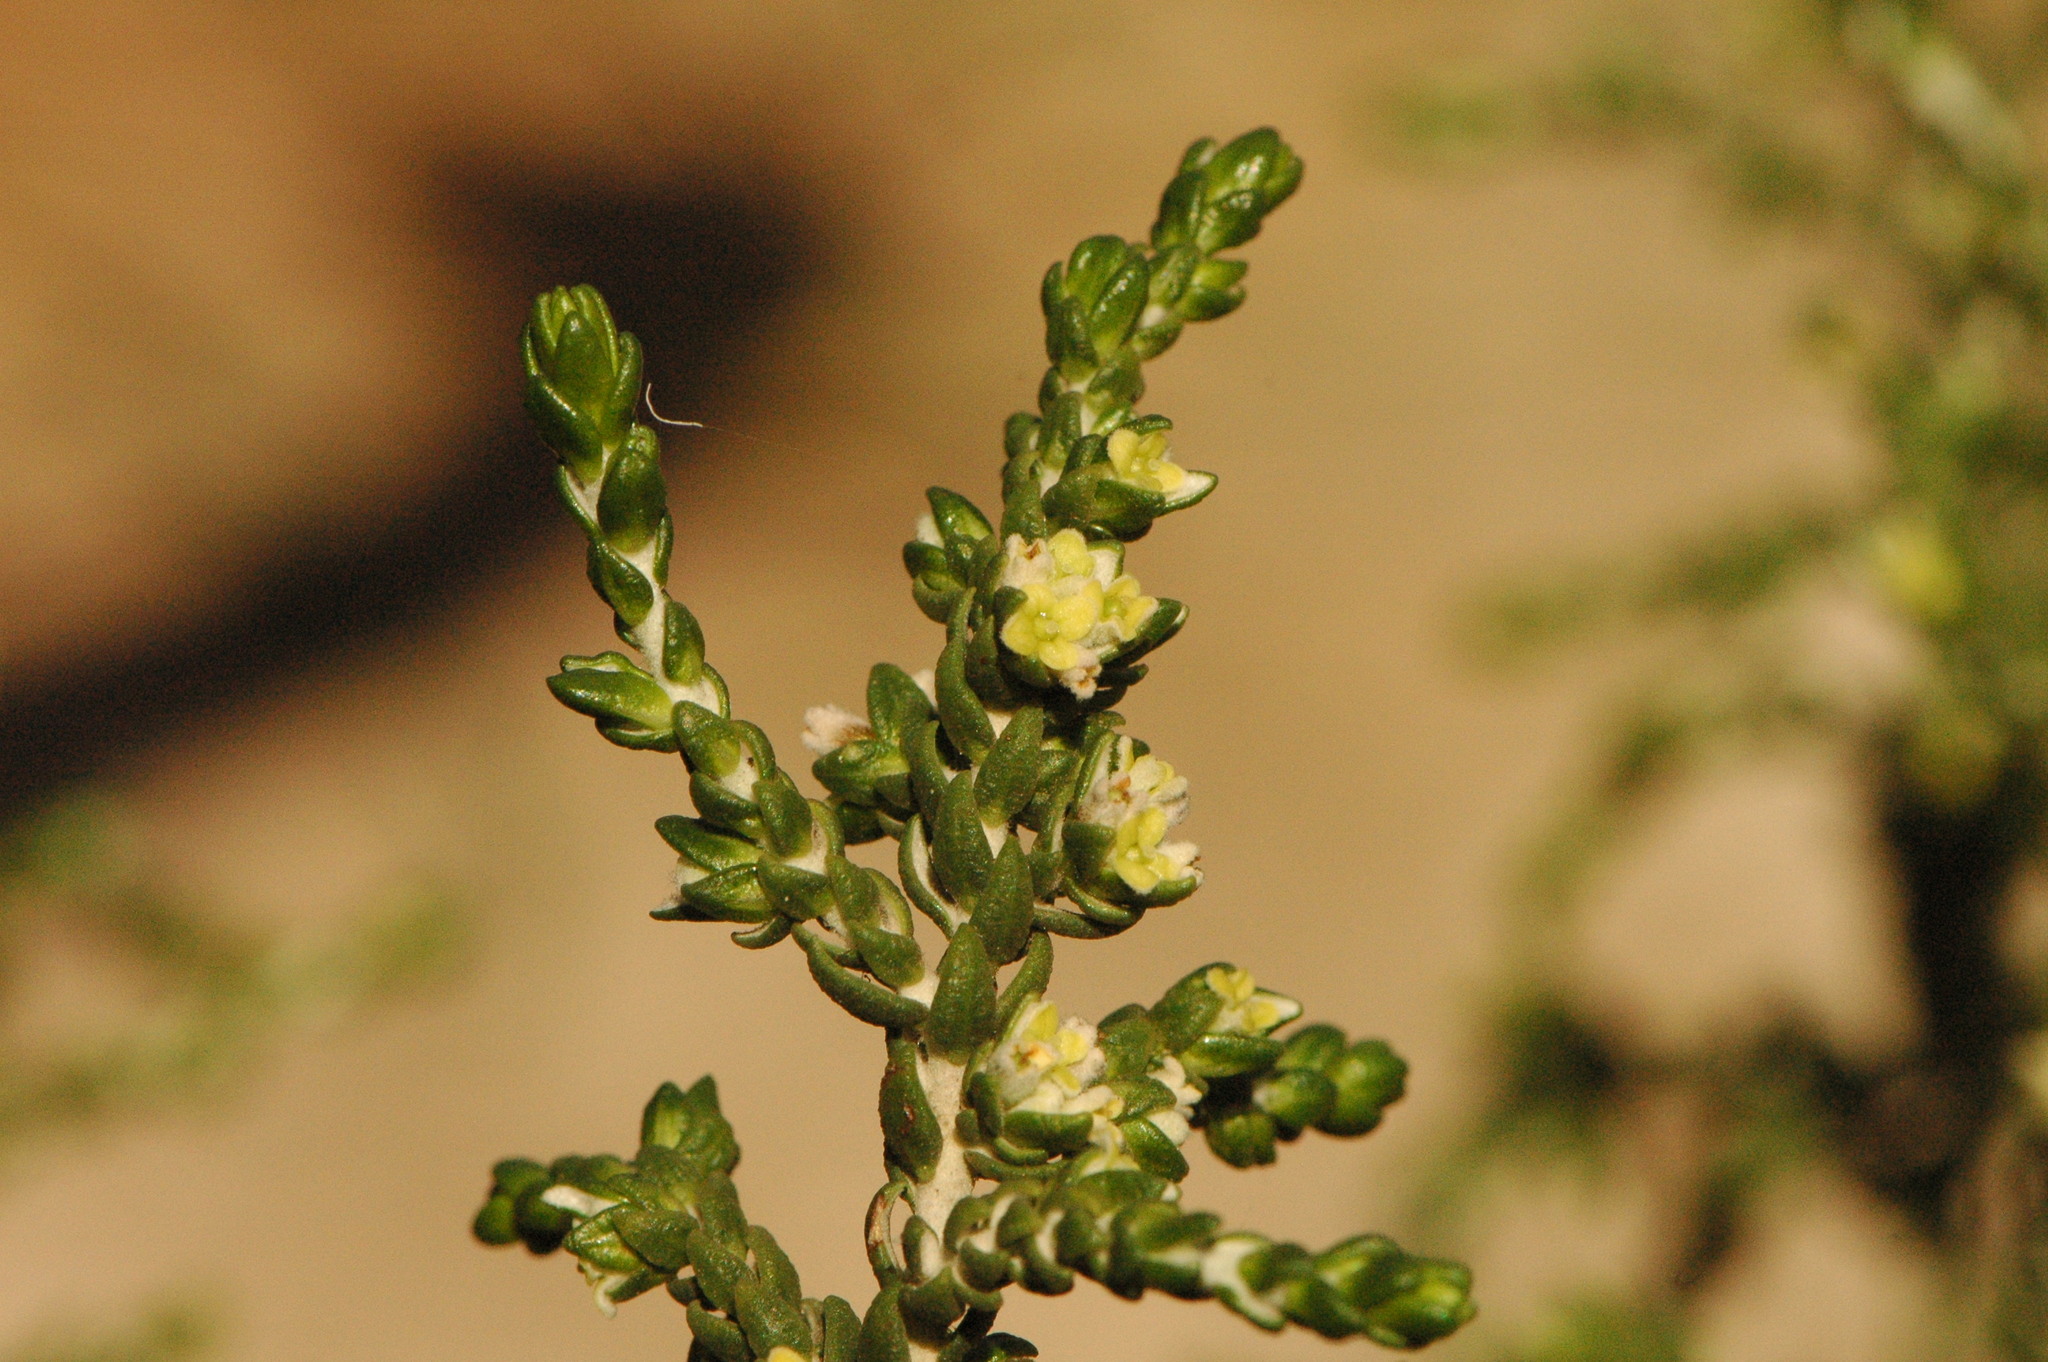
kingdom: Plantae
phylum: Tracheophyta
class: Magnoliopsida
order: Malvales
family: Thymelaeaceae
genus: Thymelaea
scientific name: Thymelaea hirsuta
